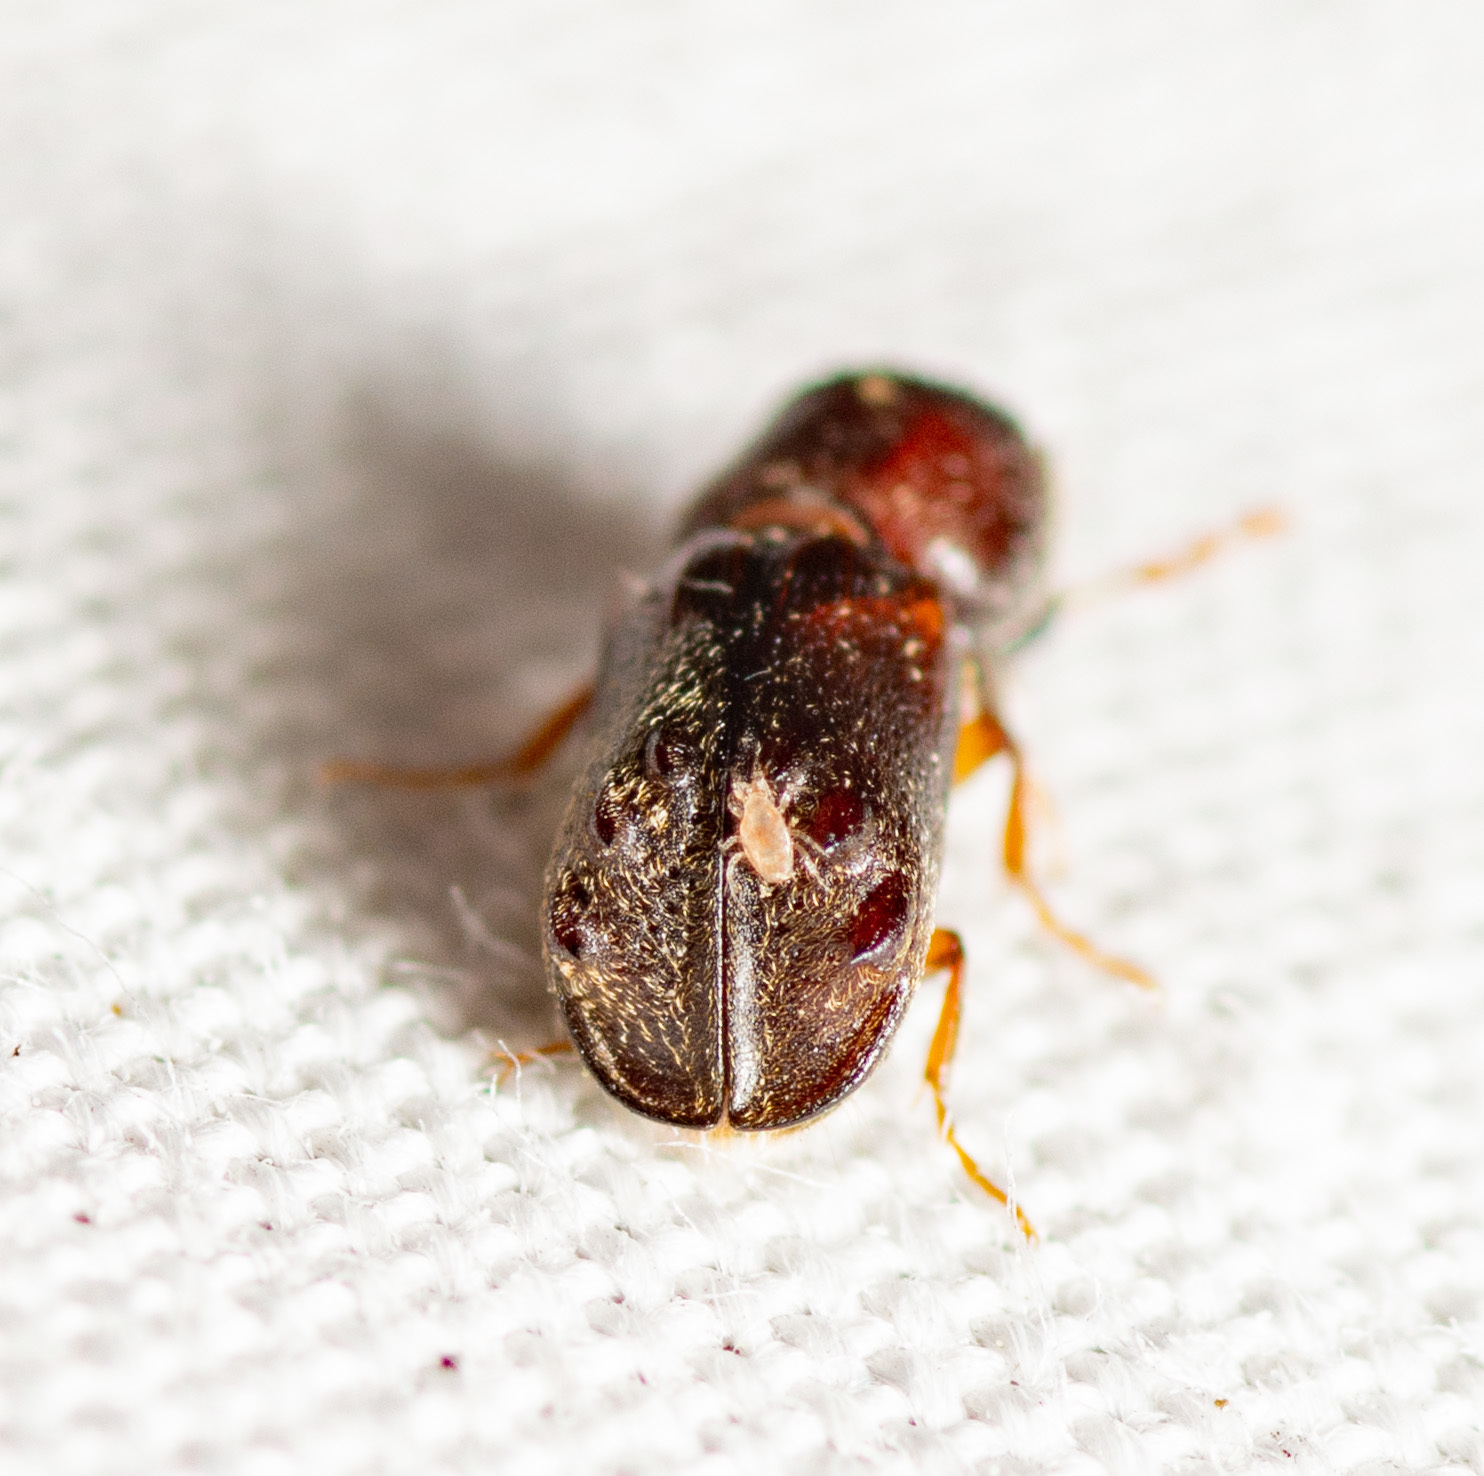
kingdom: Animalia
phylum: Arthropoda
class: Insecta
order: Coleoptera
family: Bostrichidae
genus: Xylobiops
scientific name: Xylobiops sextuberculatus
